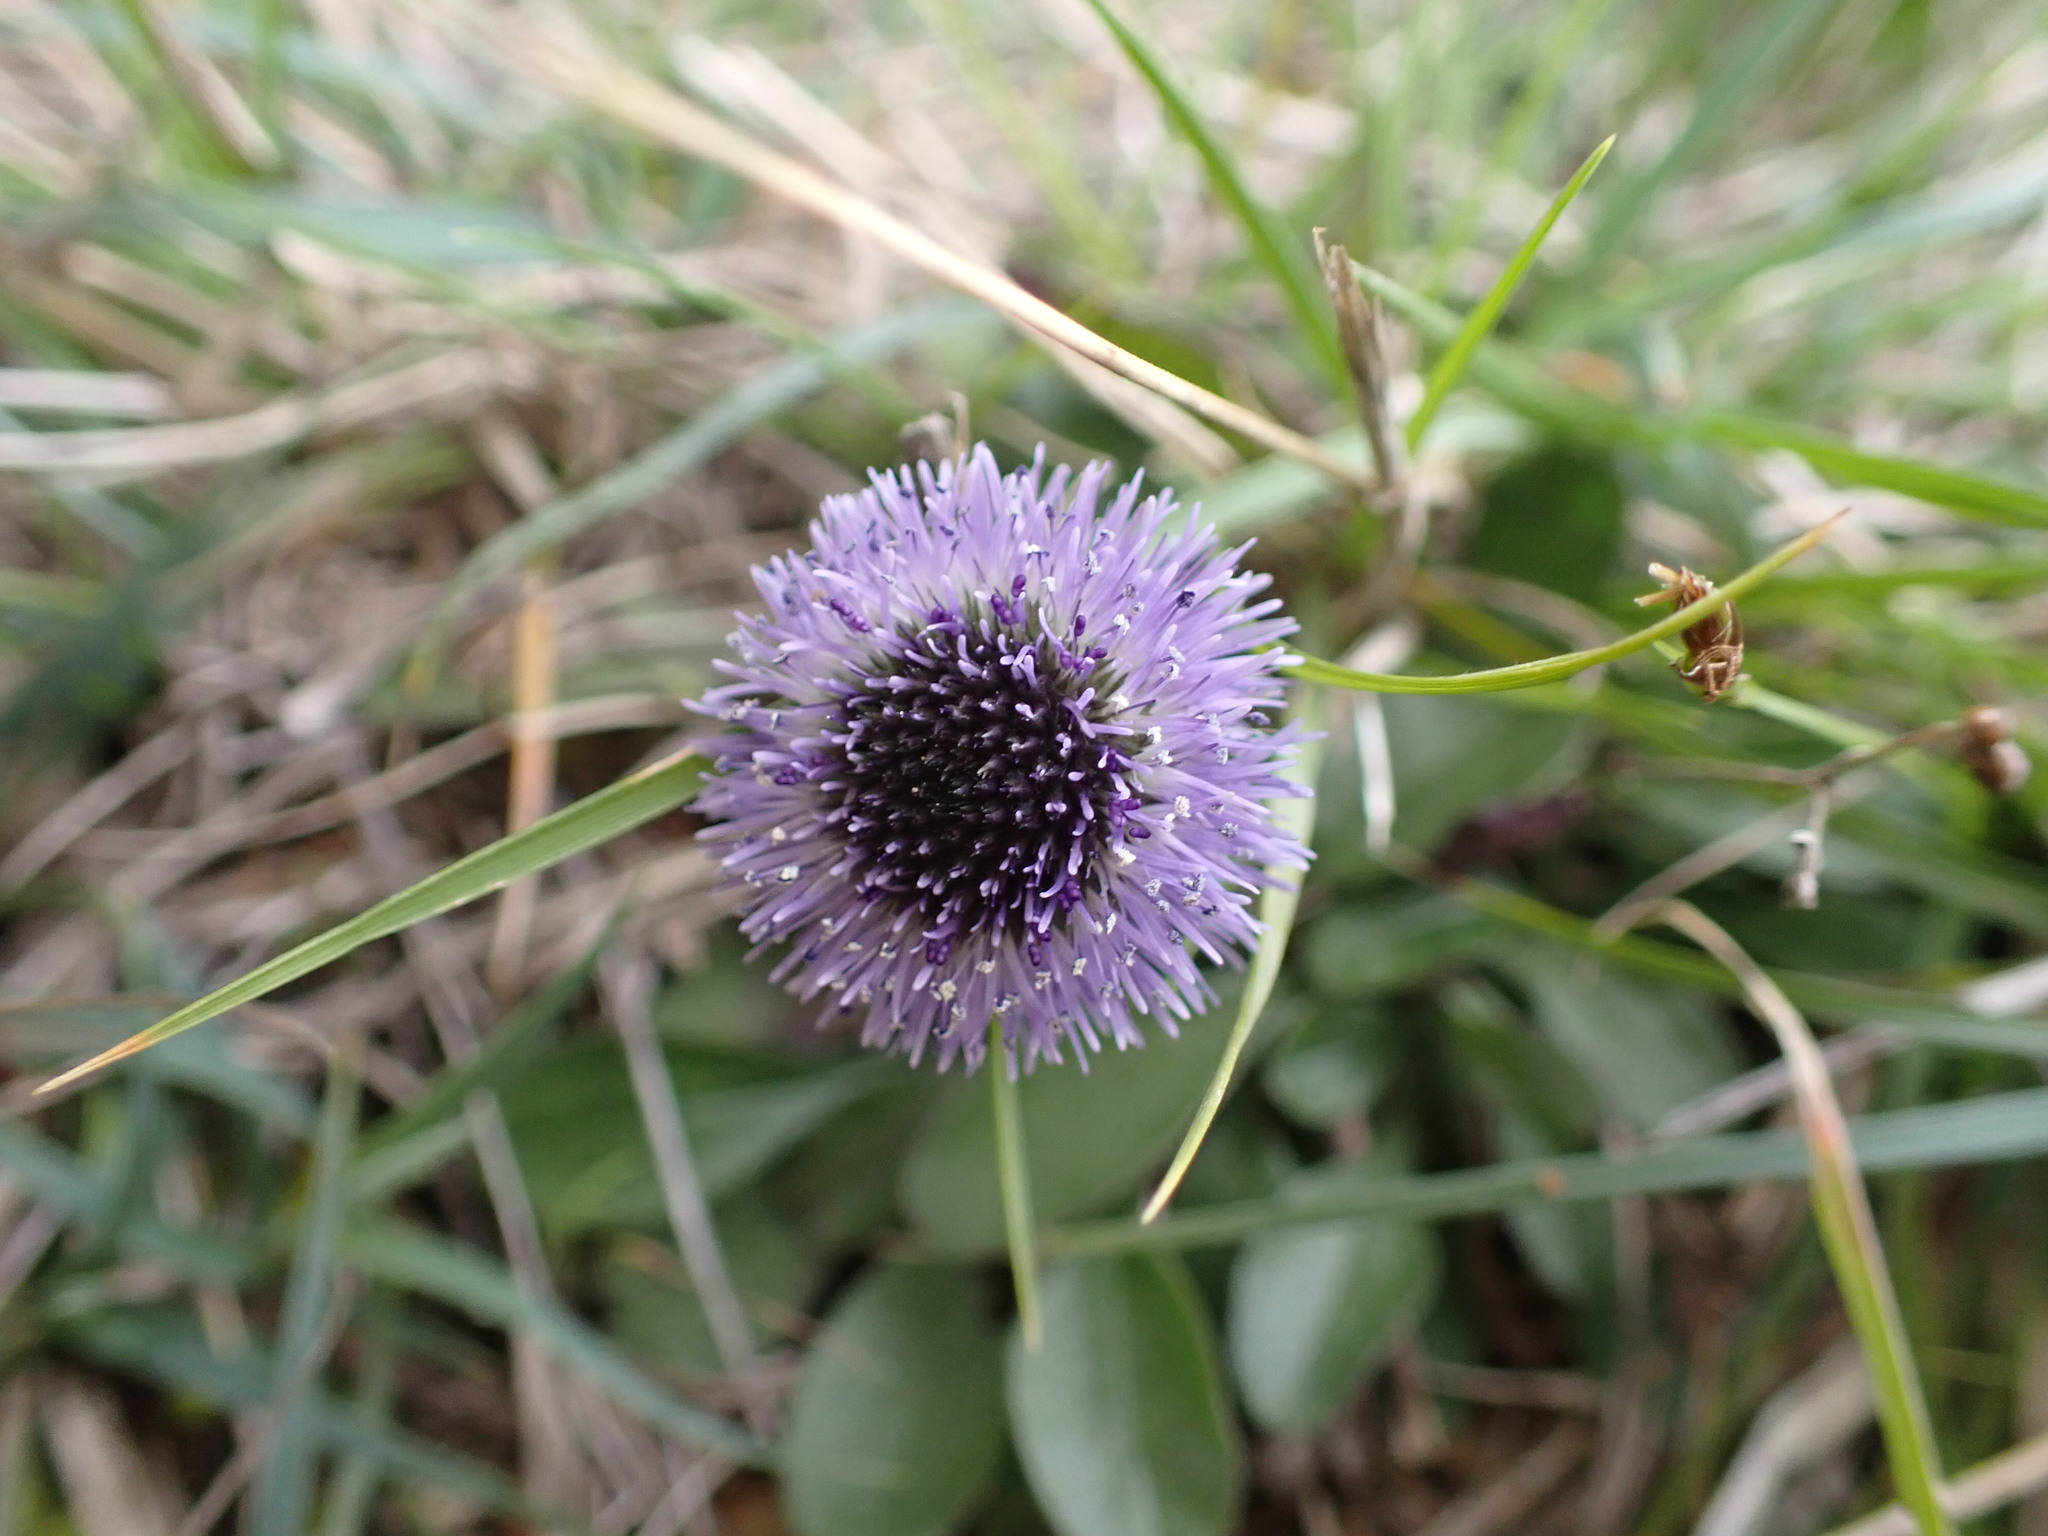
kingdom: Plantae
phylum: Tracheophyta
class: Magnoliopsida
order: Lamiales
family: Plantaginaceae
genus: Globularia
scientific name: Globularia bisnagarica
